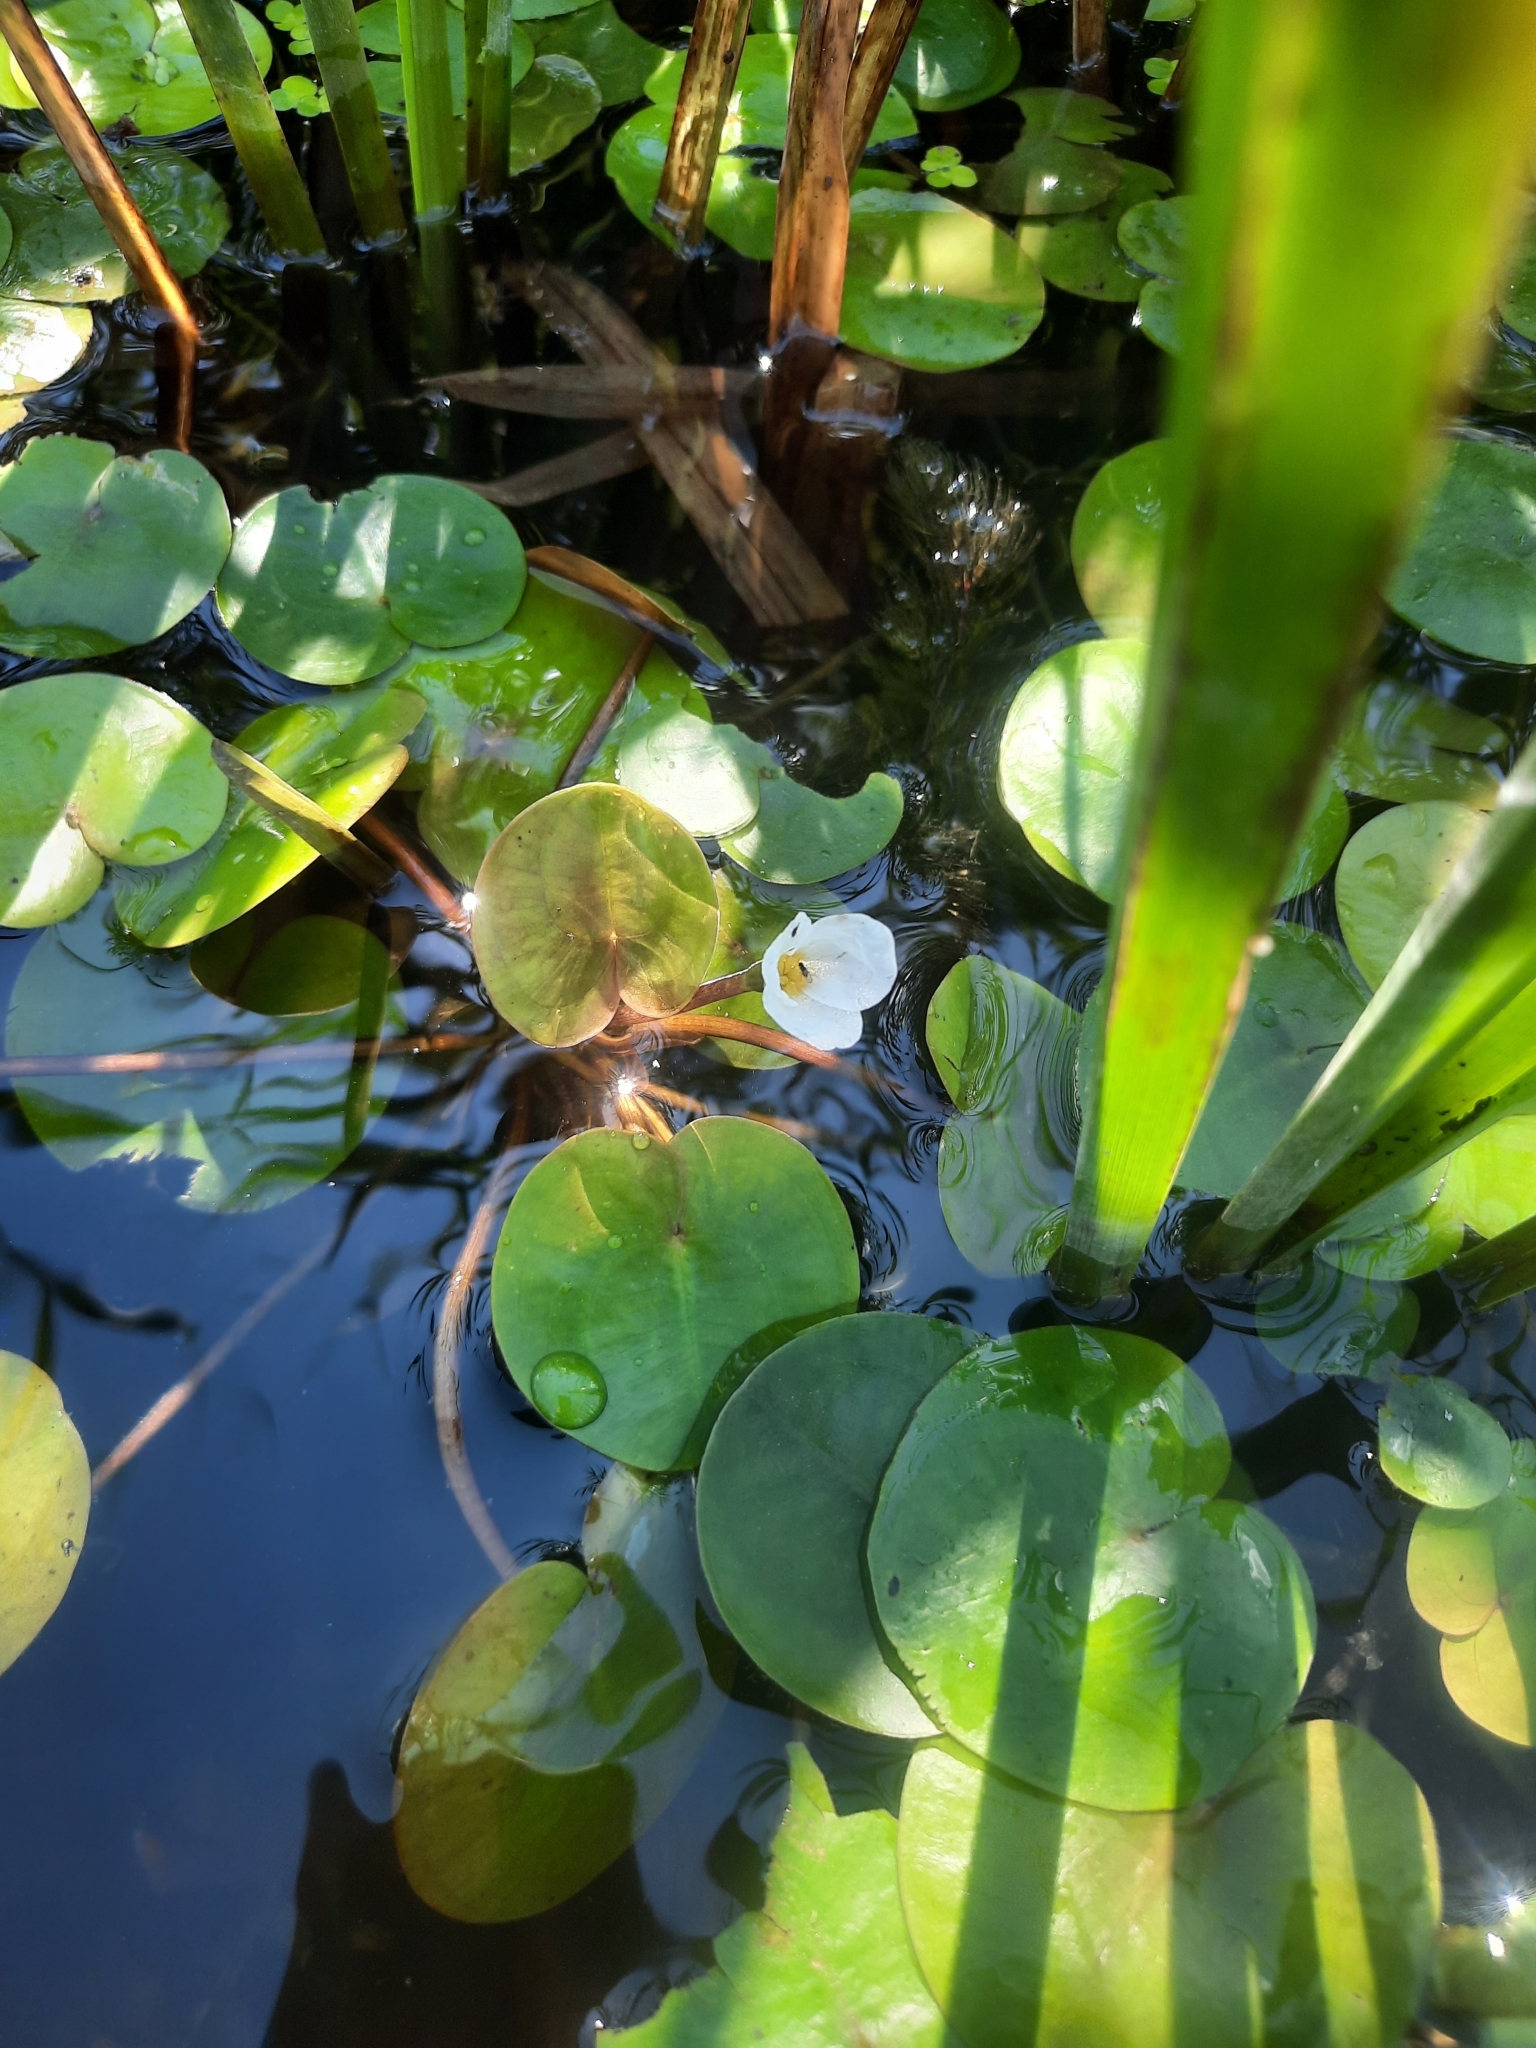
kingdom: Plantae
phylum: Tracheophyta
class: Liliopsida
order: Alismatales
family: Hydrocharitaceae
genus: Hydrocharis
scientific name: Hydrocharis morsus-ranae
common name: Frogbit
